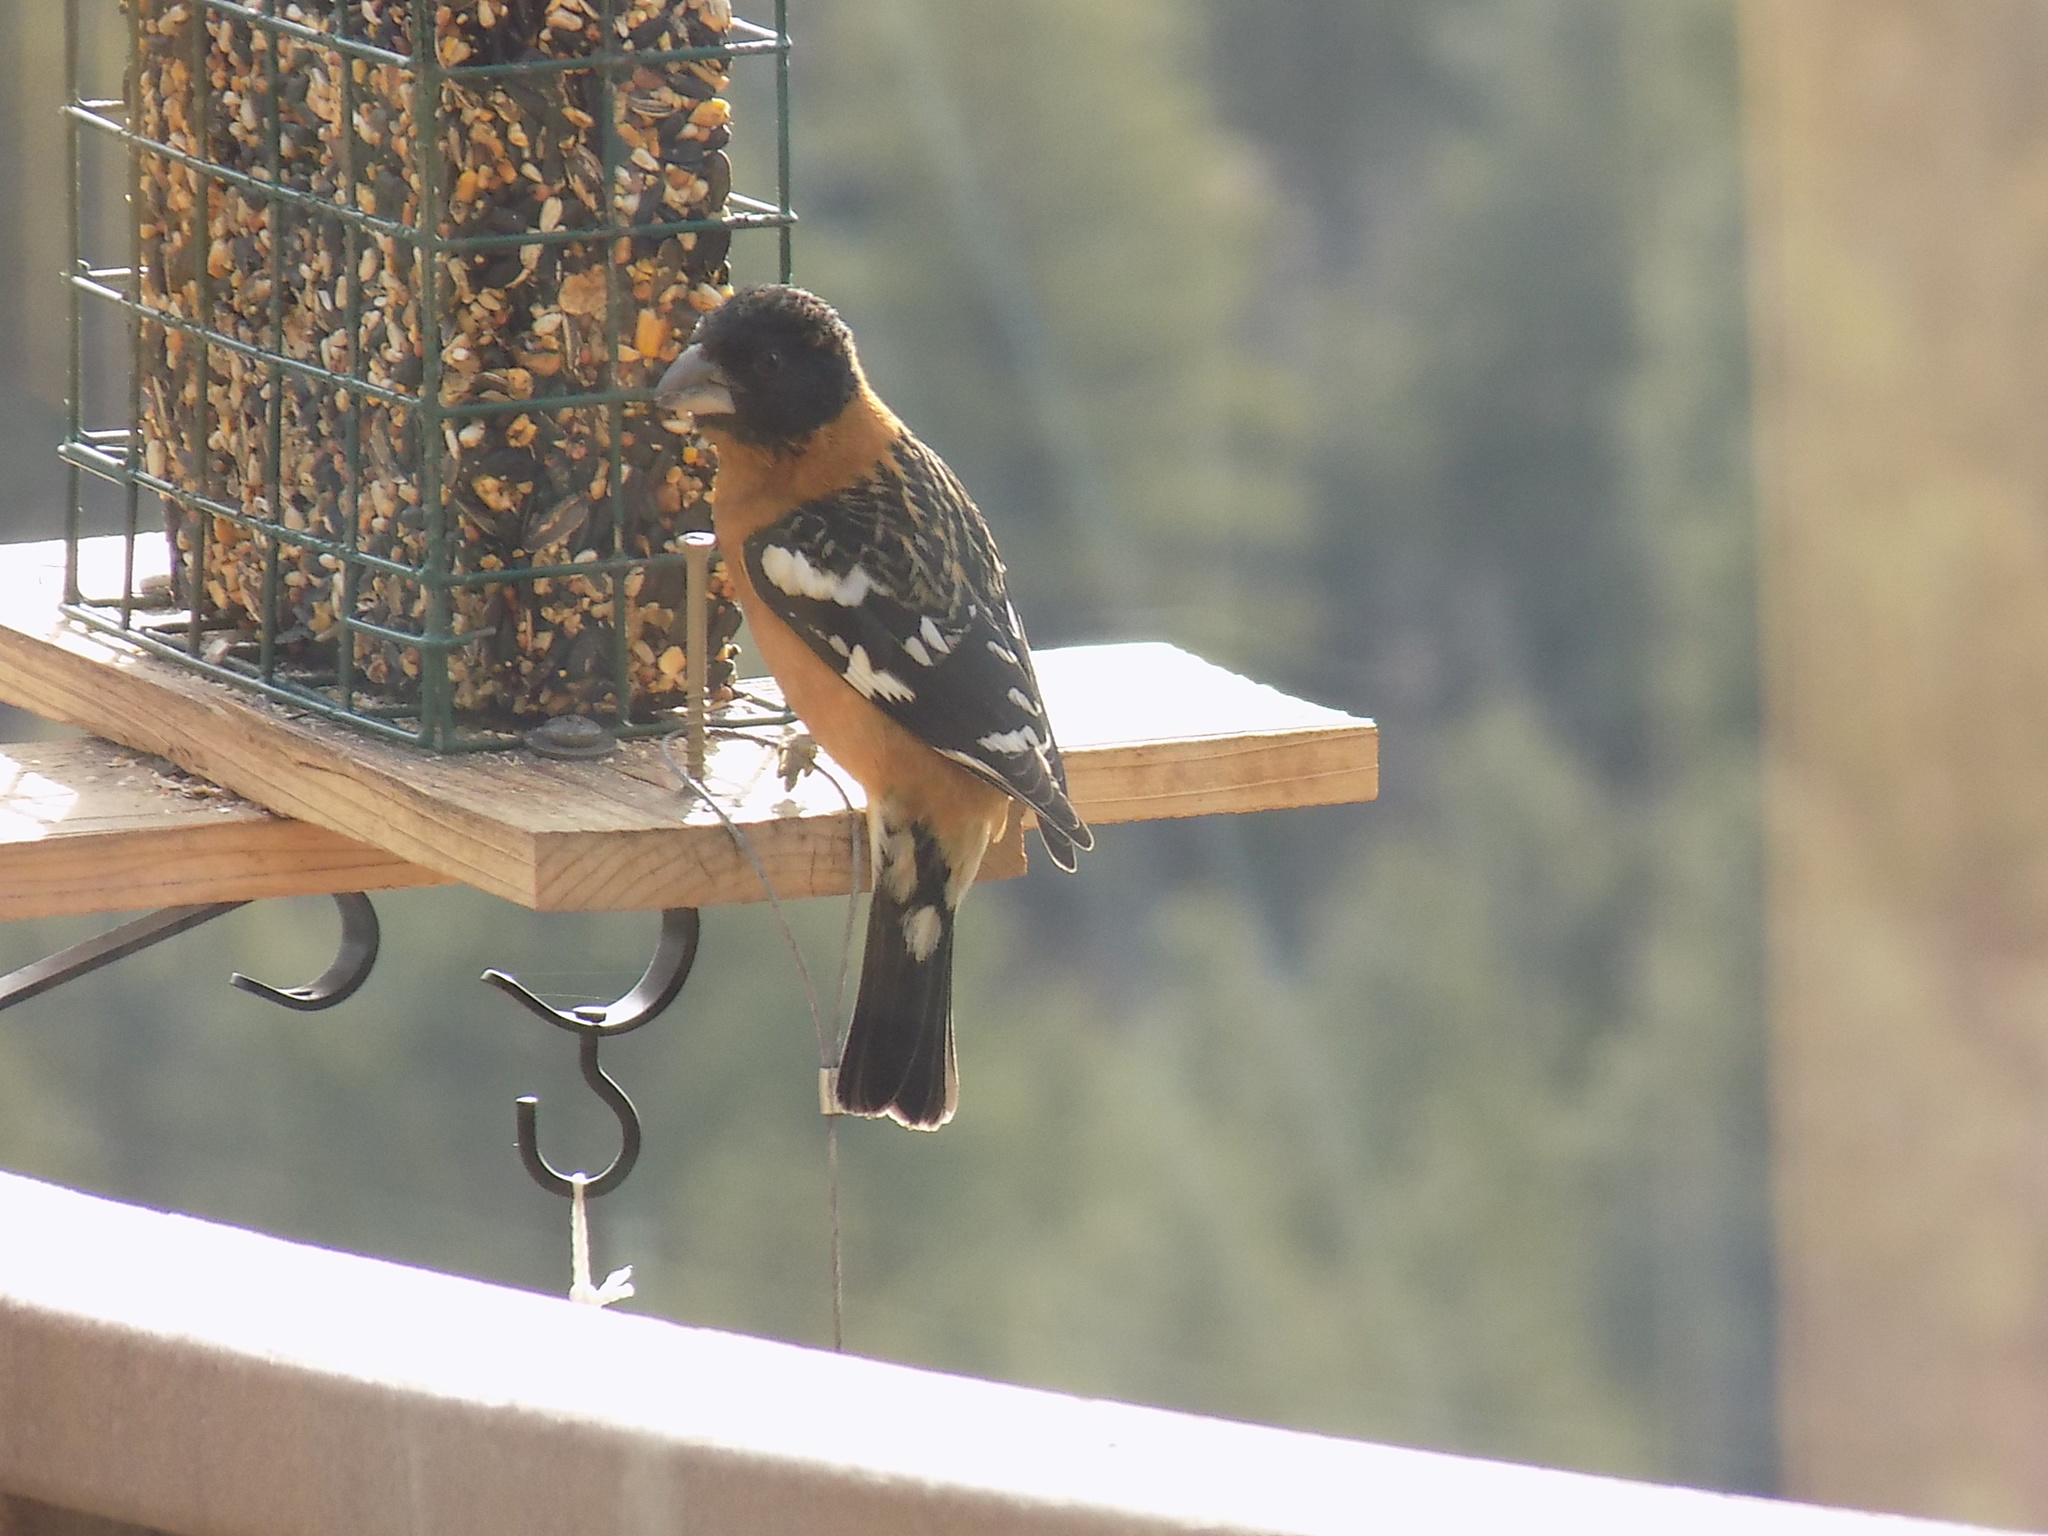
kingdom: Animalia
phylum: Chordata
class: Aves
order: Passeriformes
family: Cardinalidae
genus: Pheucticus
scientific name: Pheucticus melanocephalus
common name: Black-headed grosbeak
